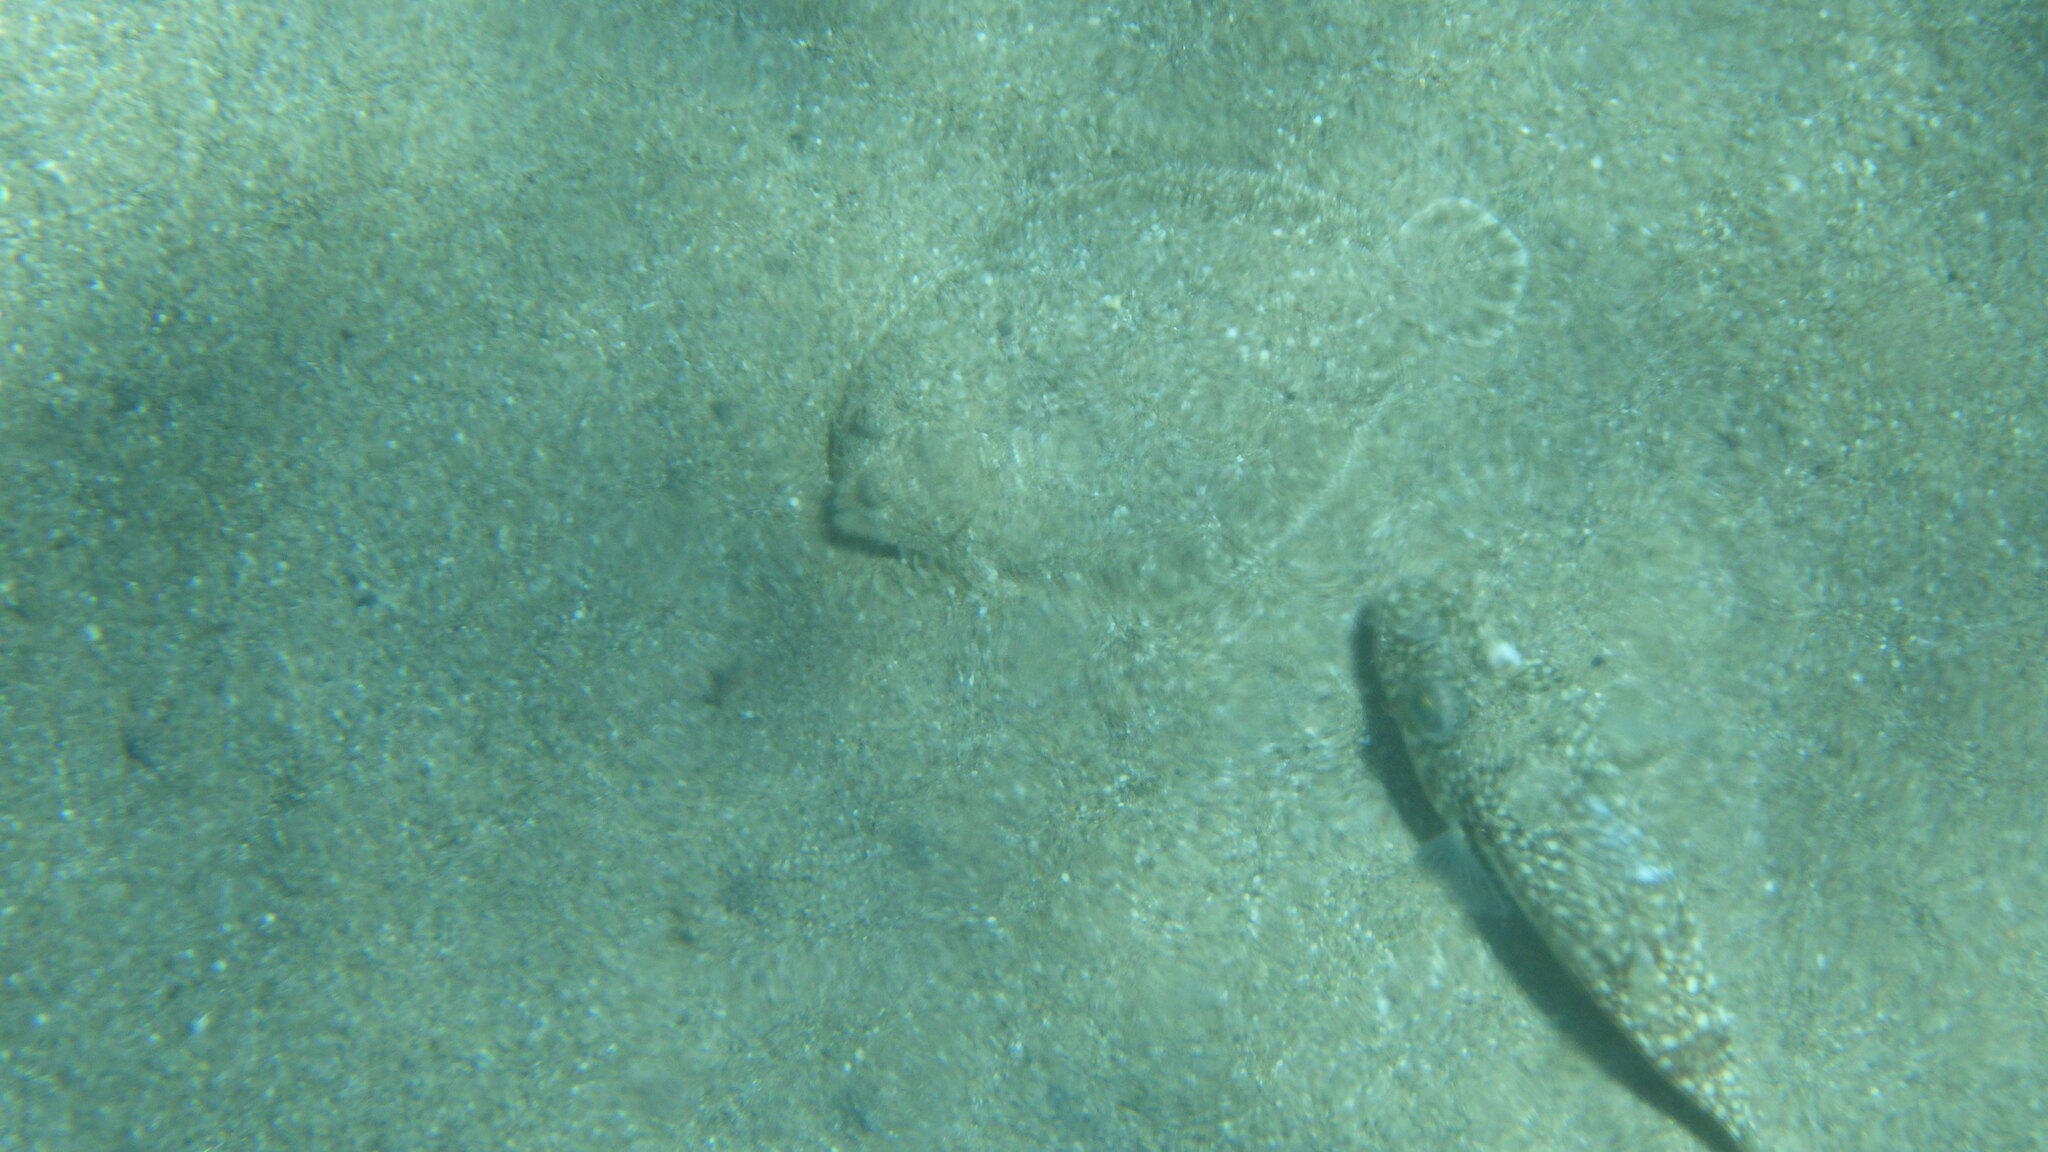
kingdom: Animalia
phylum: Chordata
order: Pleuronectiformes
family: Bothidae
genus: Bothus
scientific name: Bothus podas
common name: Wide-eyed flounder
